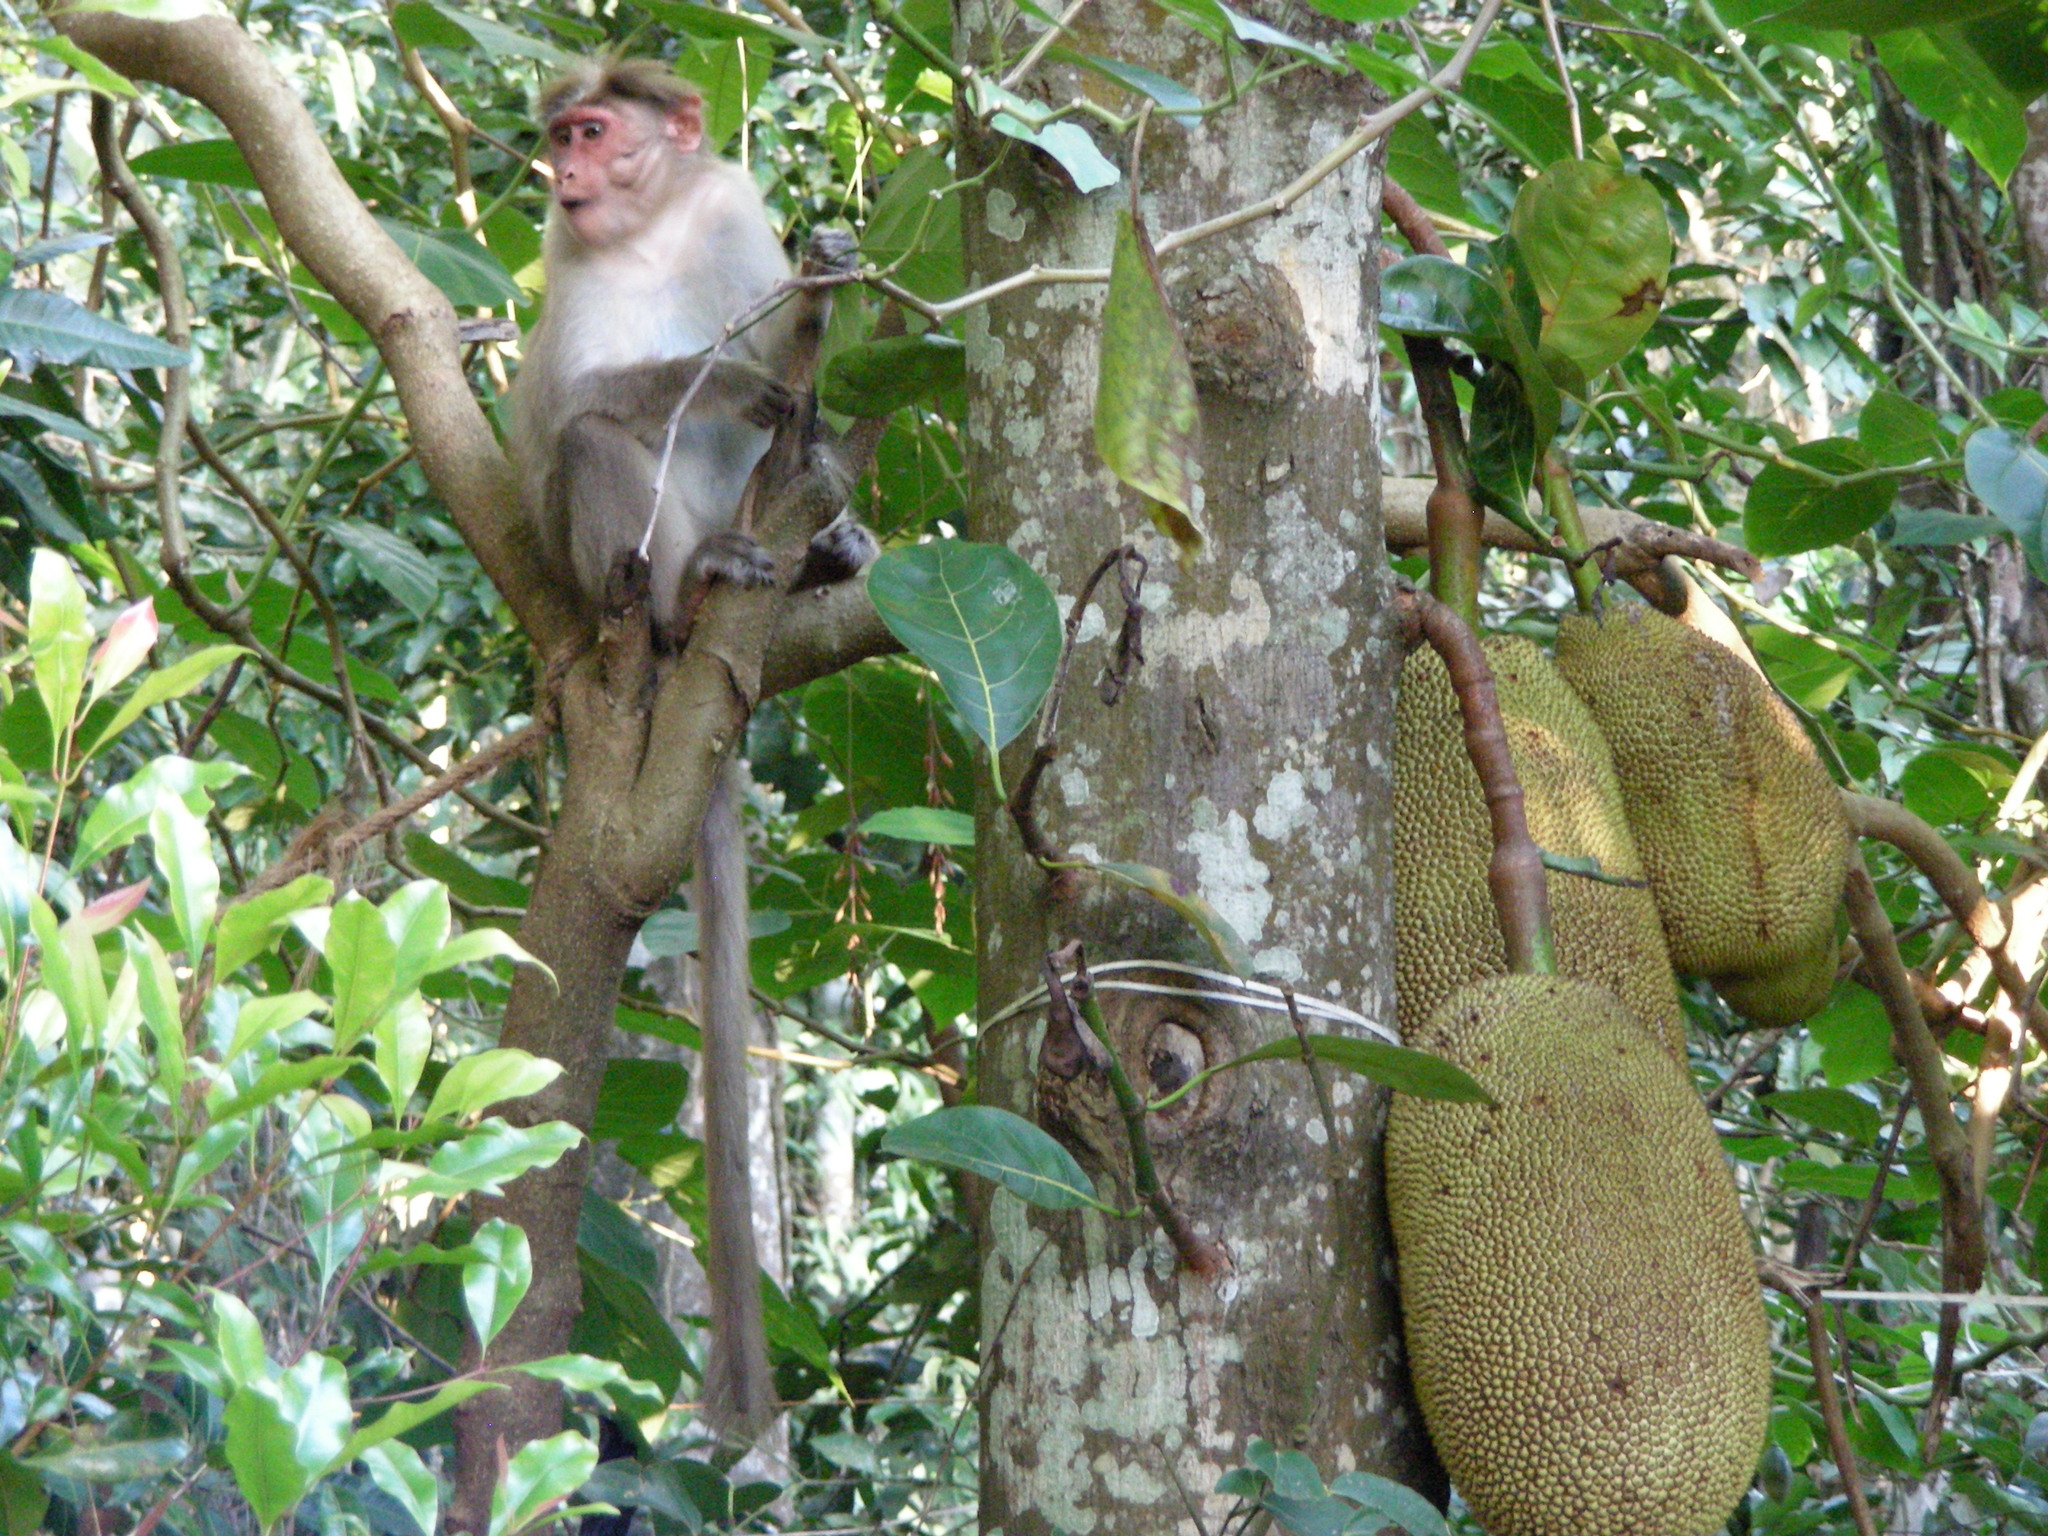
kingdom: Animalia
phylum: Chordata
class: Mammalia
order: Primates
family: Cercopithecidae
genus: Macaca
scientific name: Macaca radiata
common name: Bonnet macaque
